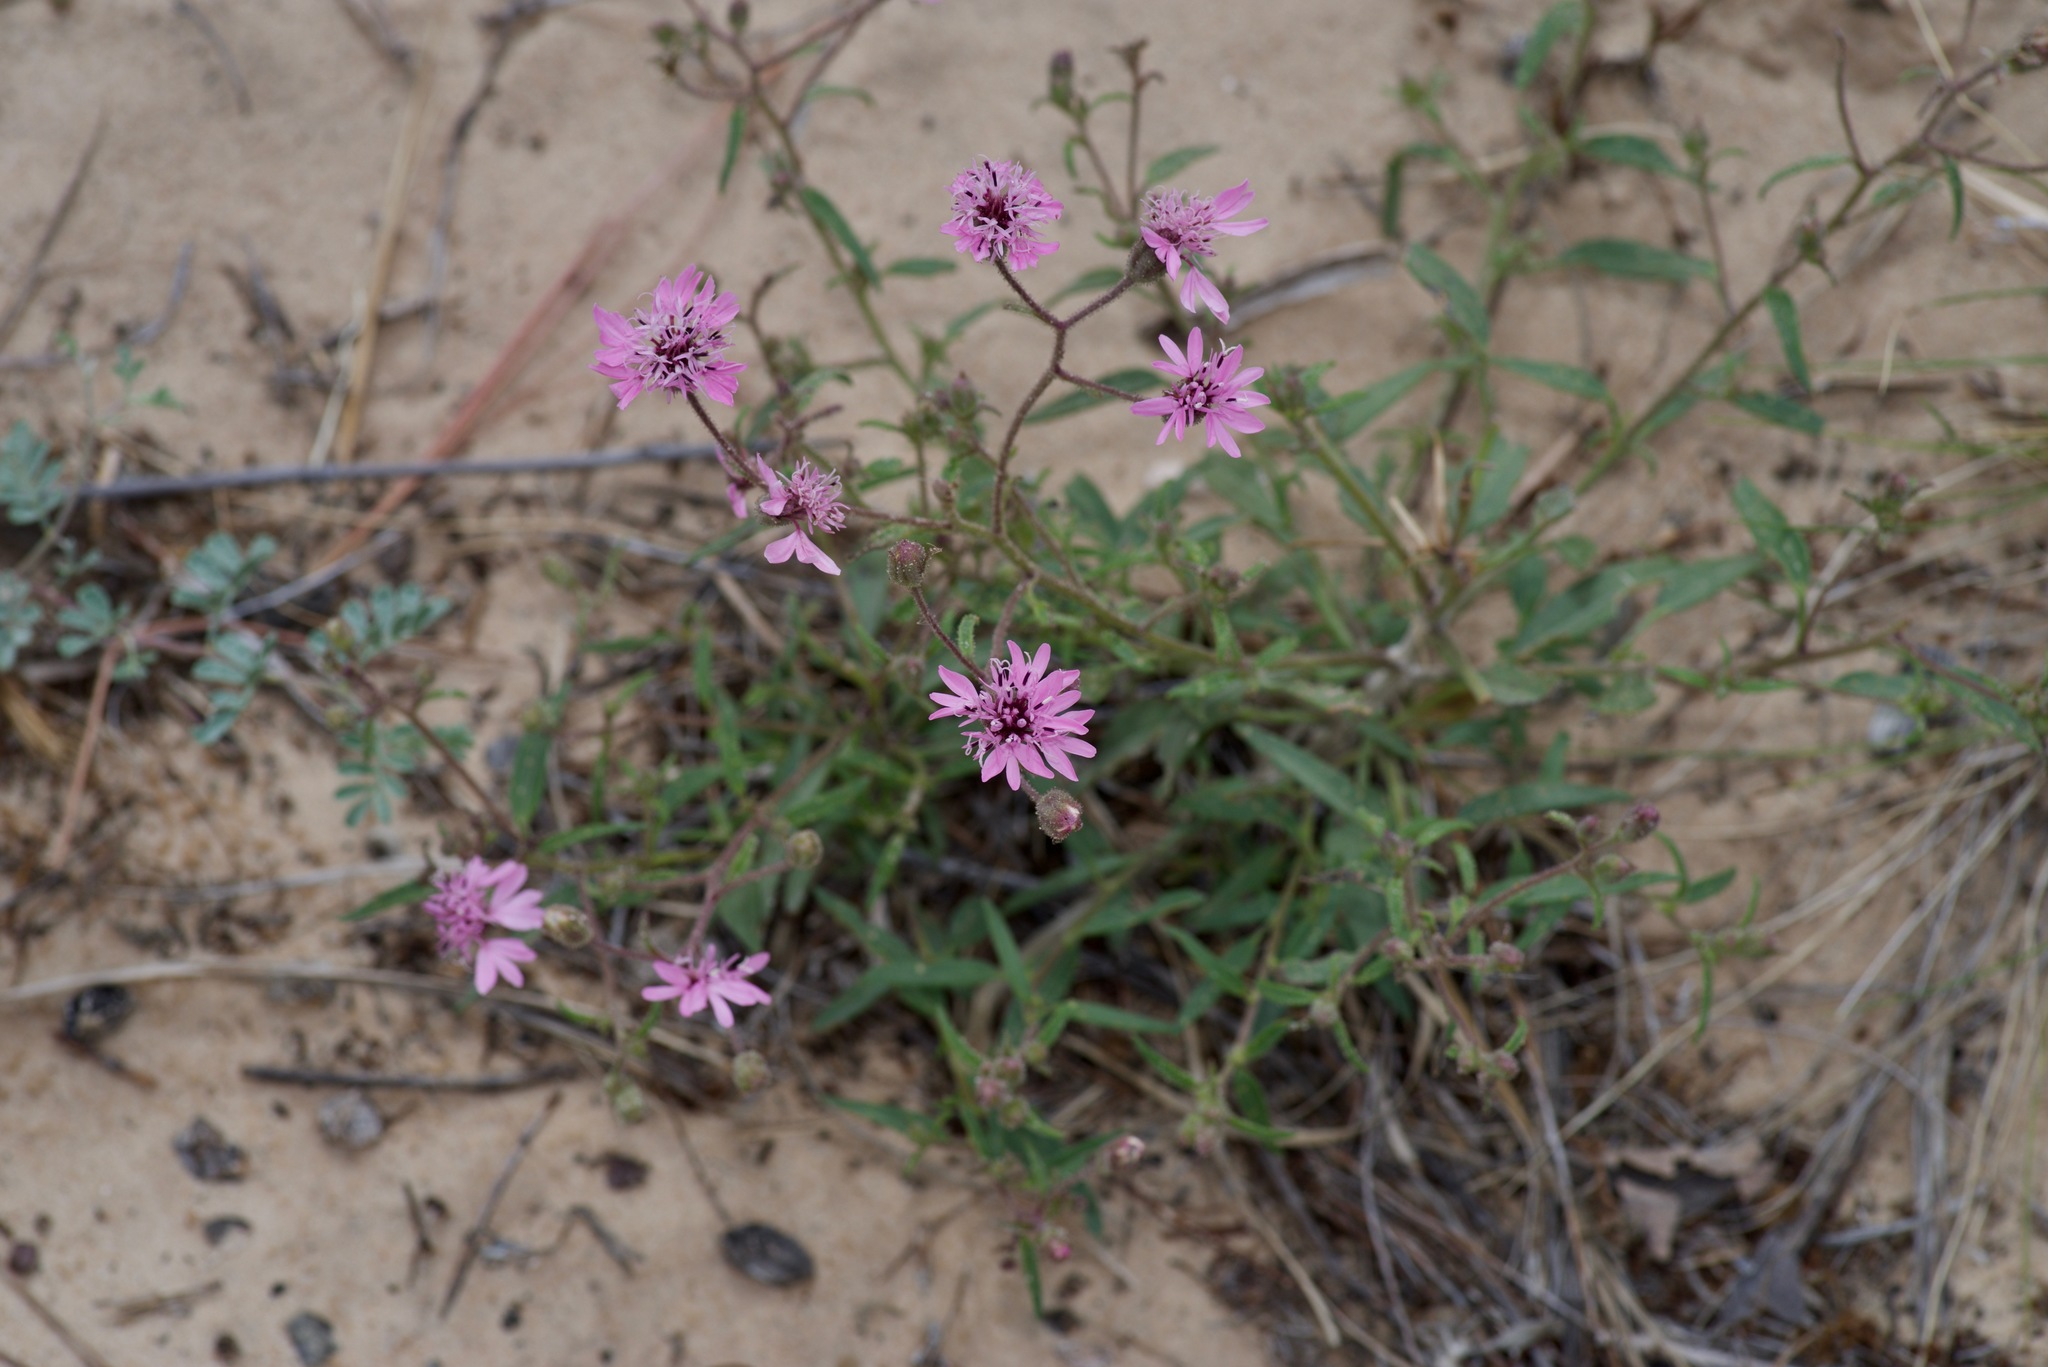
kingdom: Plantae
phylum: Tracheophyta
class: Magnoliopsida
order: Asterales
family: Asteraceae
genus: Palafoxia
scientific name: Palafoxia sphacelata
